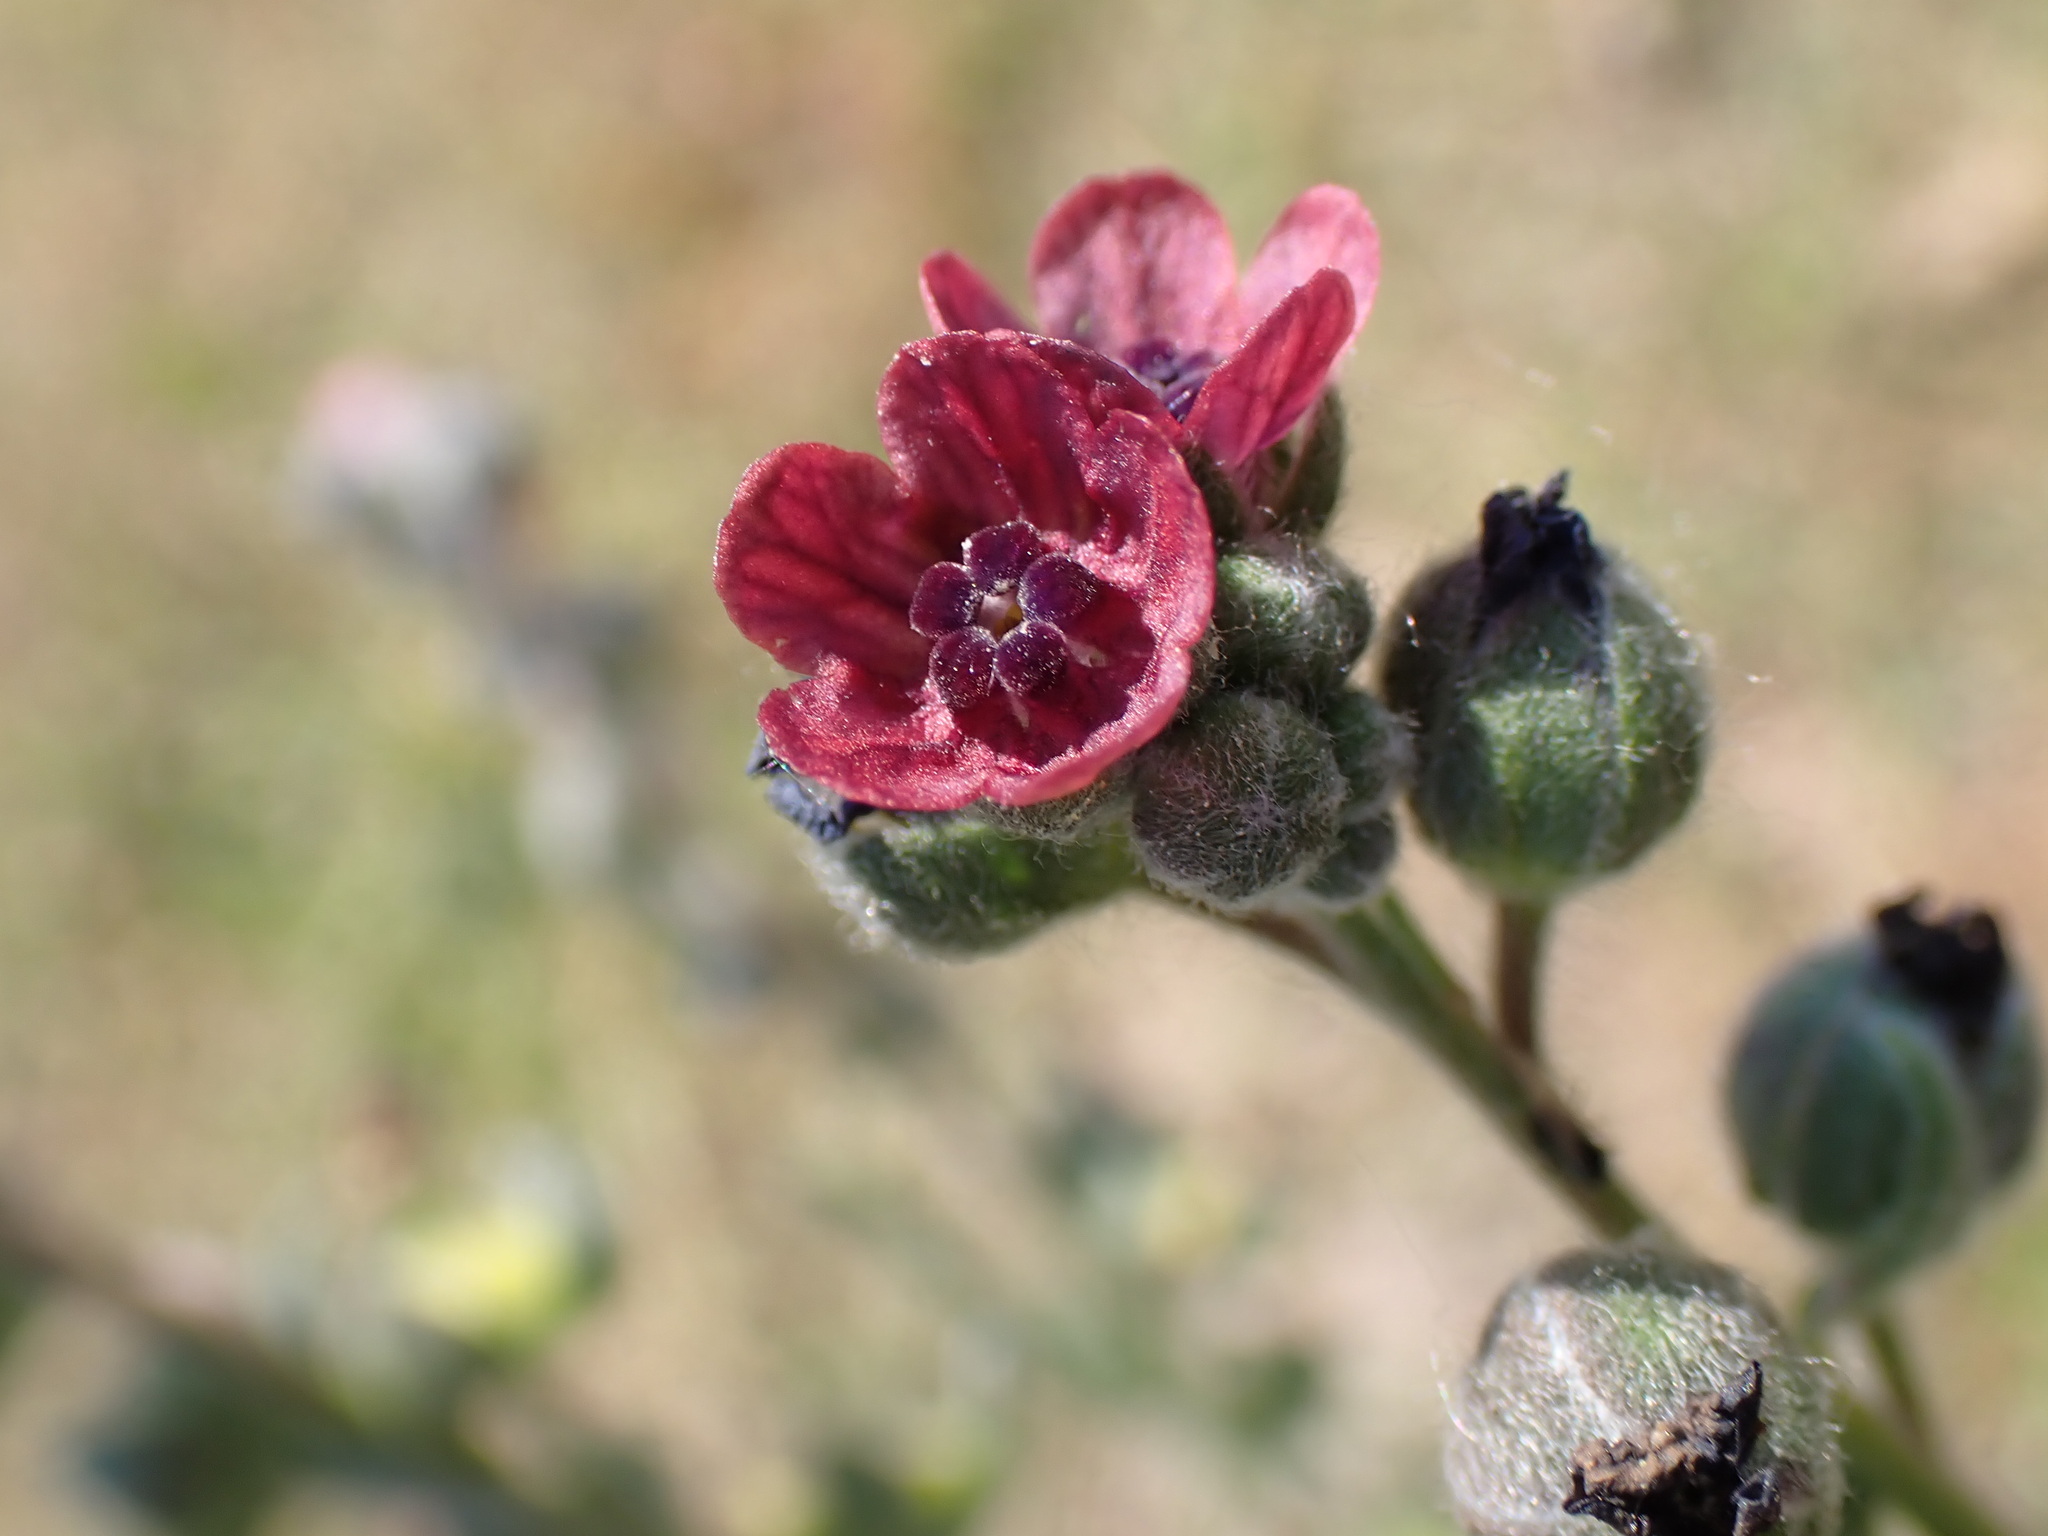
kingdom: Plantae
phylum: Tracheophyta
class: Magnoliopsida
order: Boraginales
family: Boraginaceae
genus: Cynoglossum
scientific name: Cynoglossum officinale
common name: Hound's-tongue
